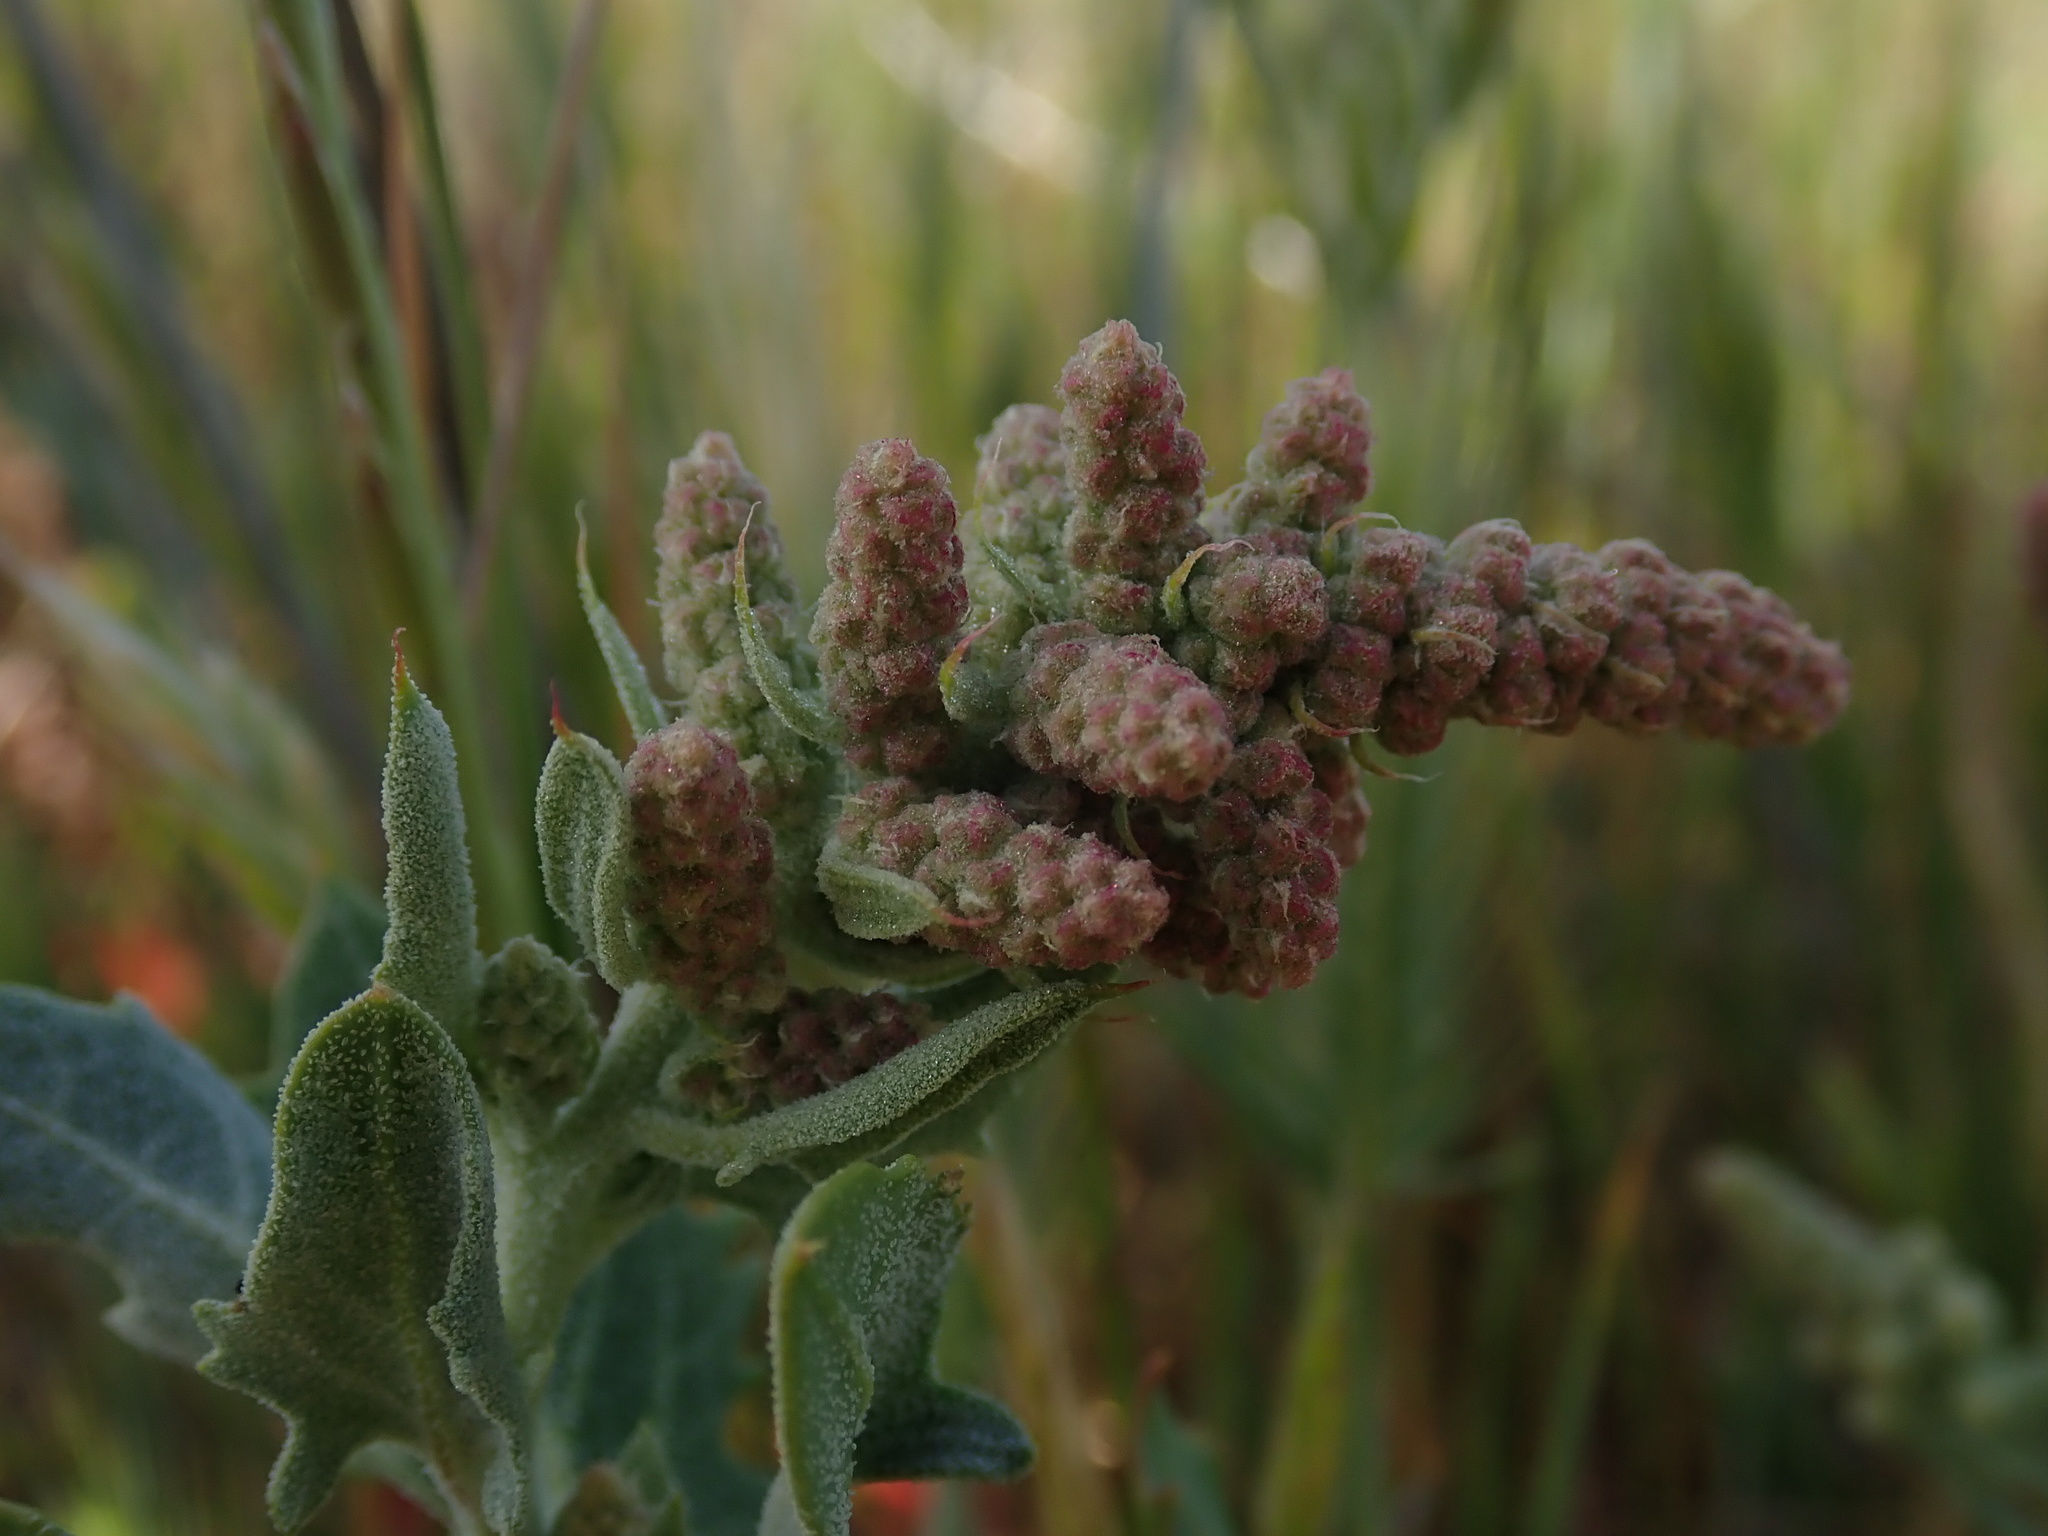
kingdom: Plantae
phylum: Tracheophyta
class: Magnoliopsida
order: Caryophyllales
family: Amaranthaceae
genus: Extriplex
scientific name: Extriplex joaquinana
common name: San joaquin saltbush
